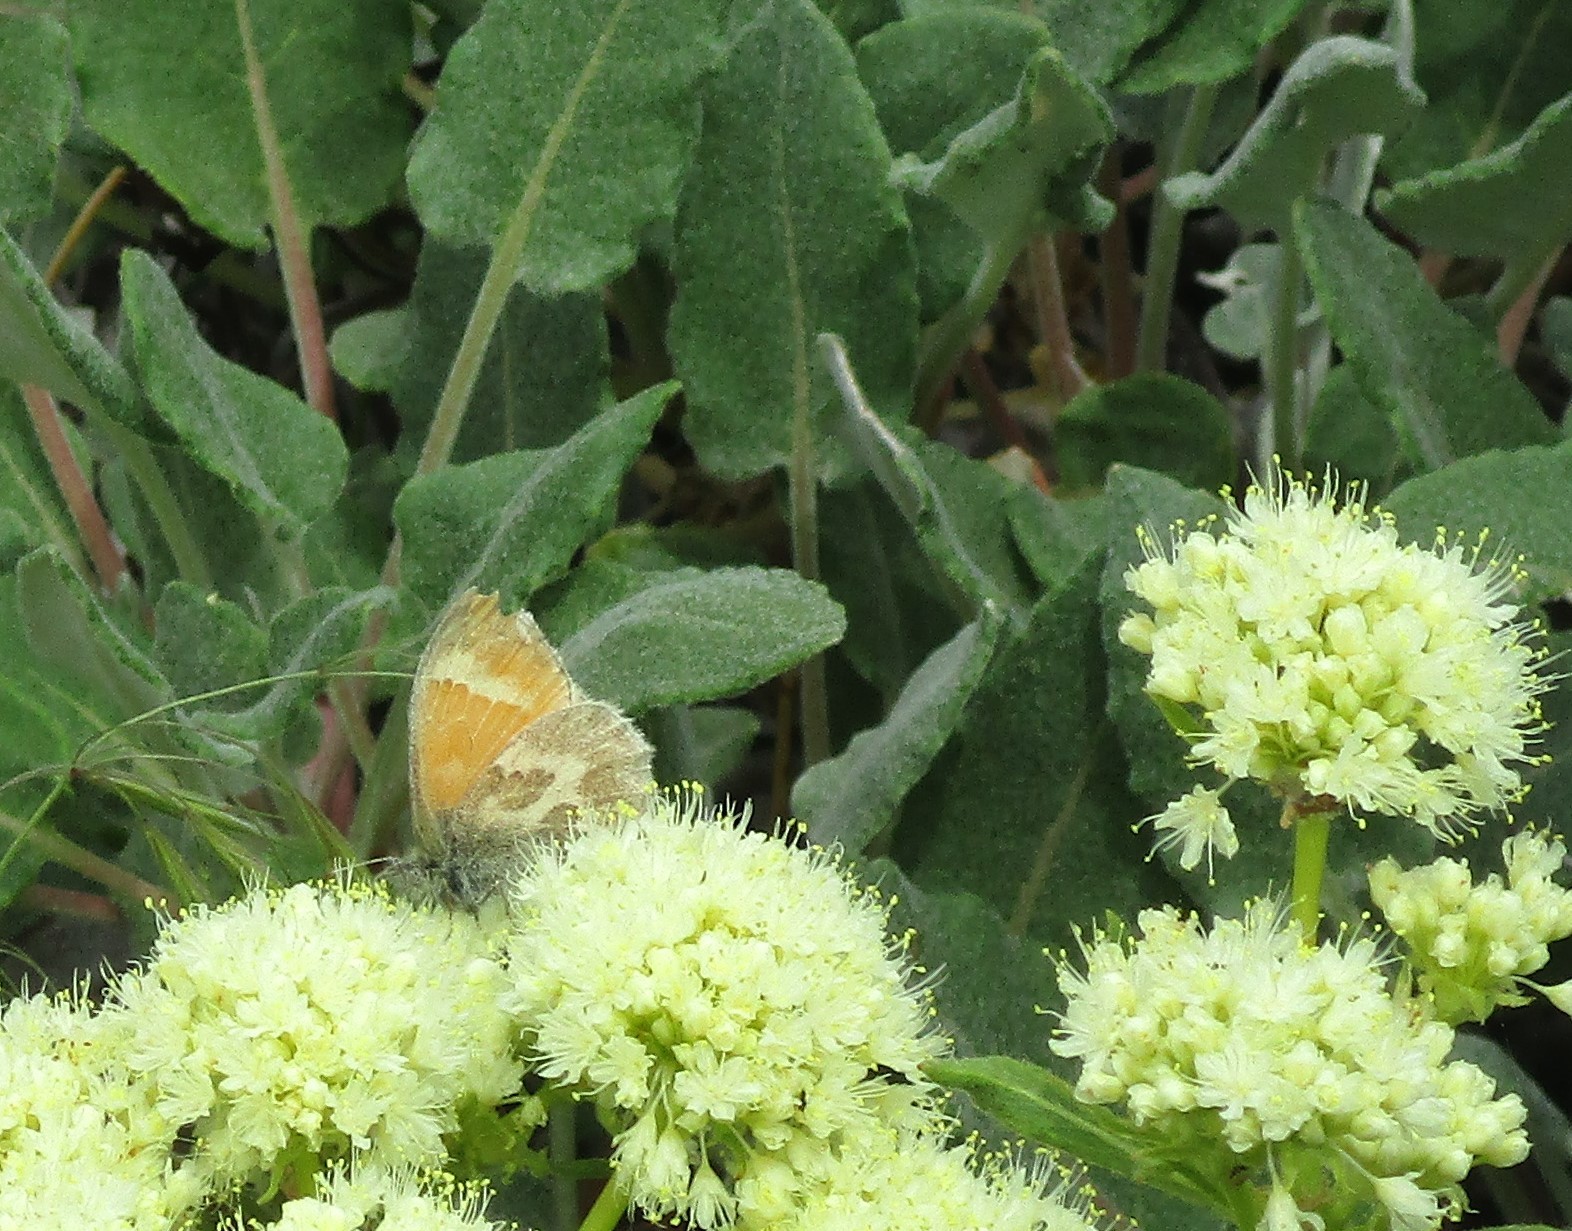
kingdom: Animalia
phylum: Arthropoda
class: Insecta
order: Lepidoptera
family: Nymphalidae
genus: Coenonympha
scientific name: Coenonympha california
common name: Common ringlet
